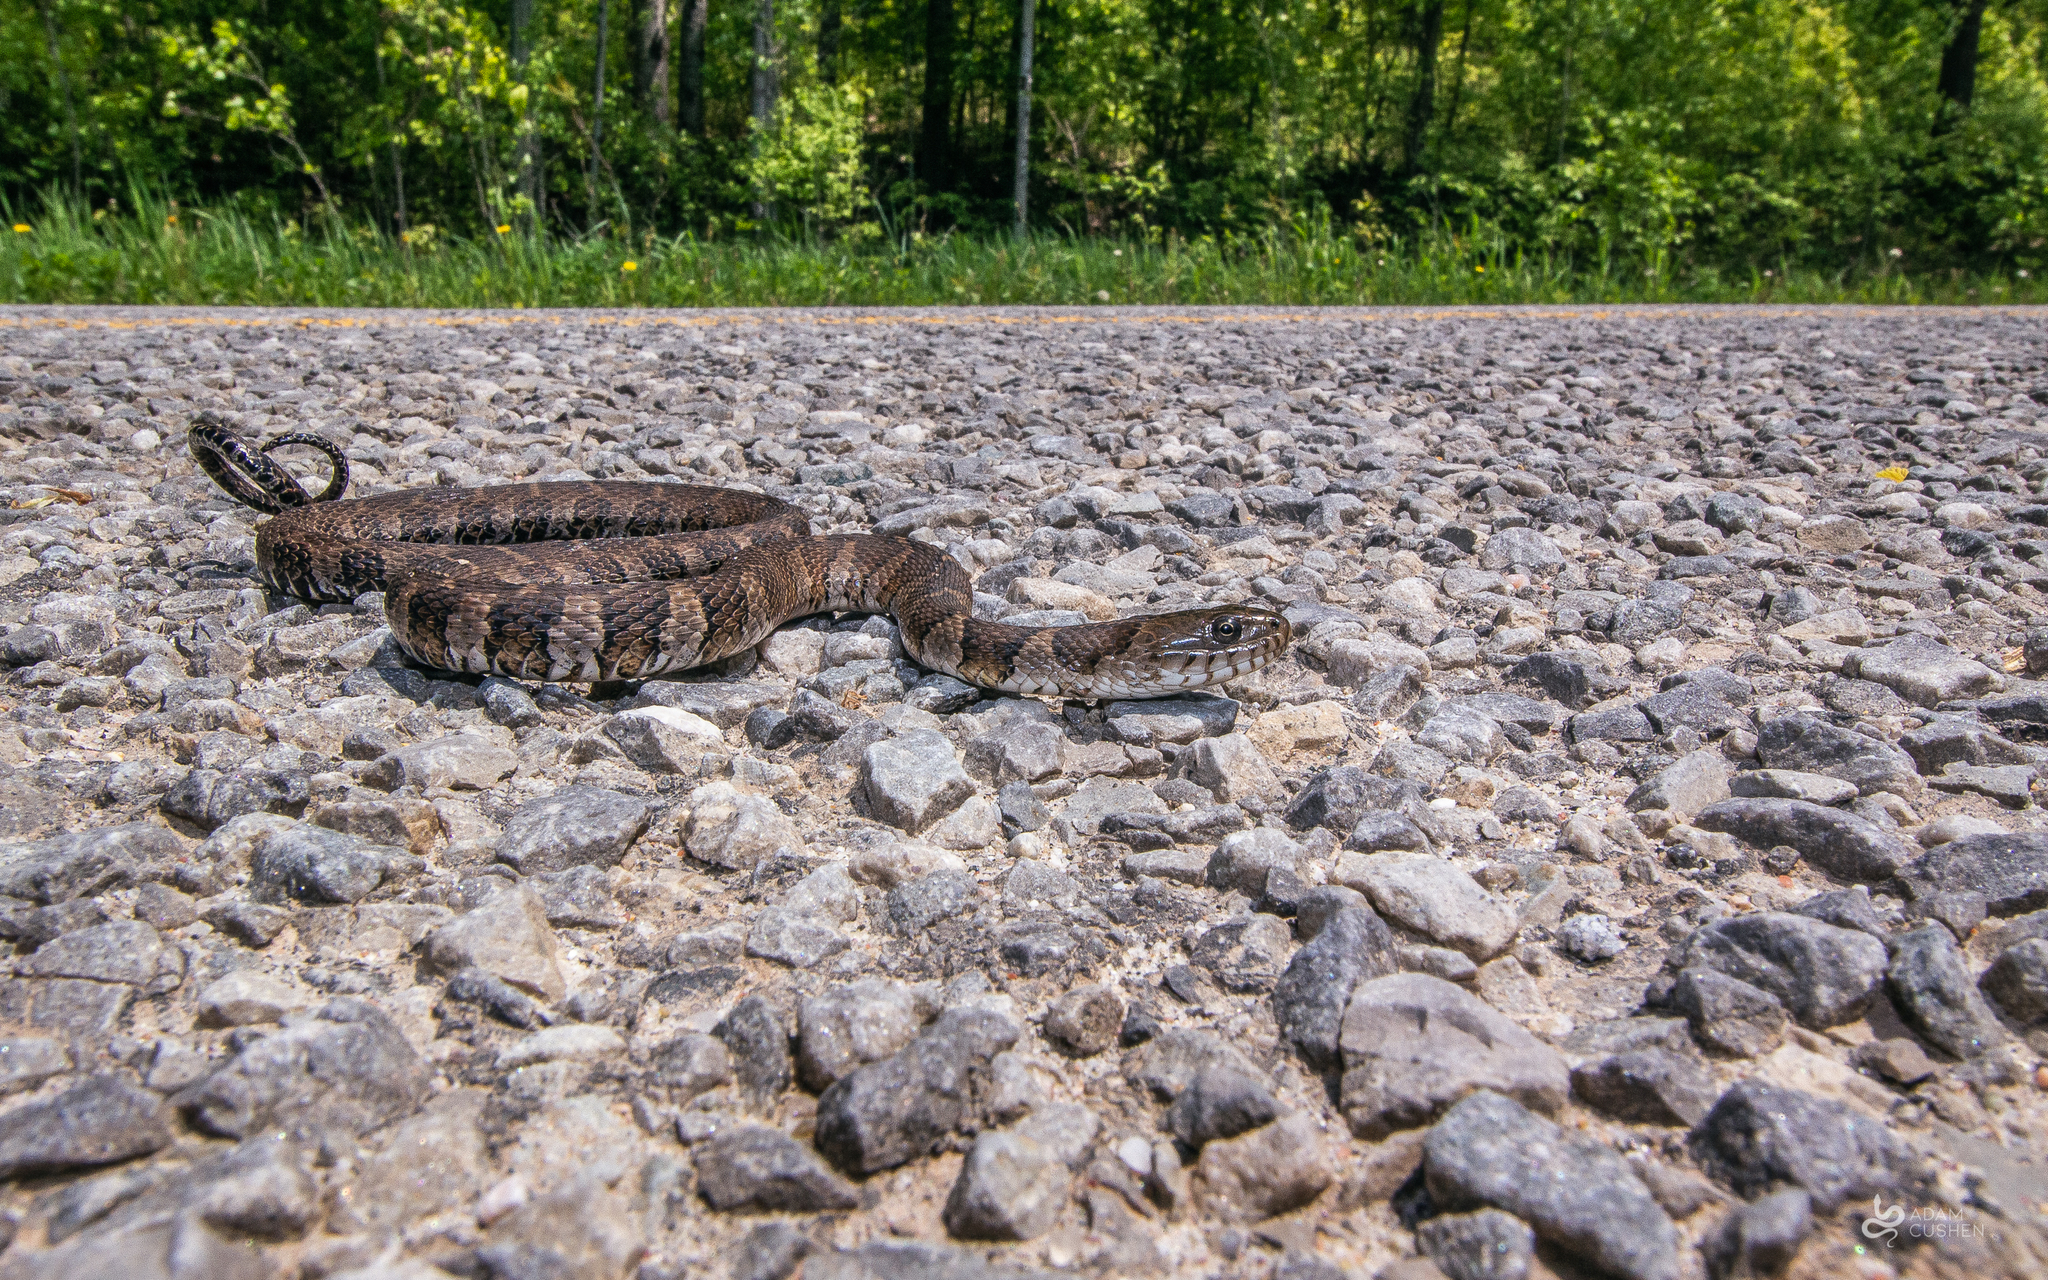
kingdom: Animalia
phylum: Chordata
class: Squamata
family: Colubridae
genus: Nerodia
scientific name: Nerodia sipedon
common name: Northern water snake
